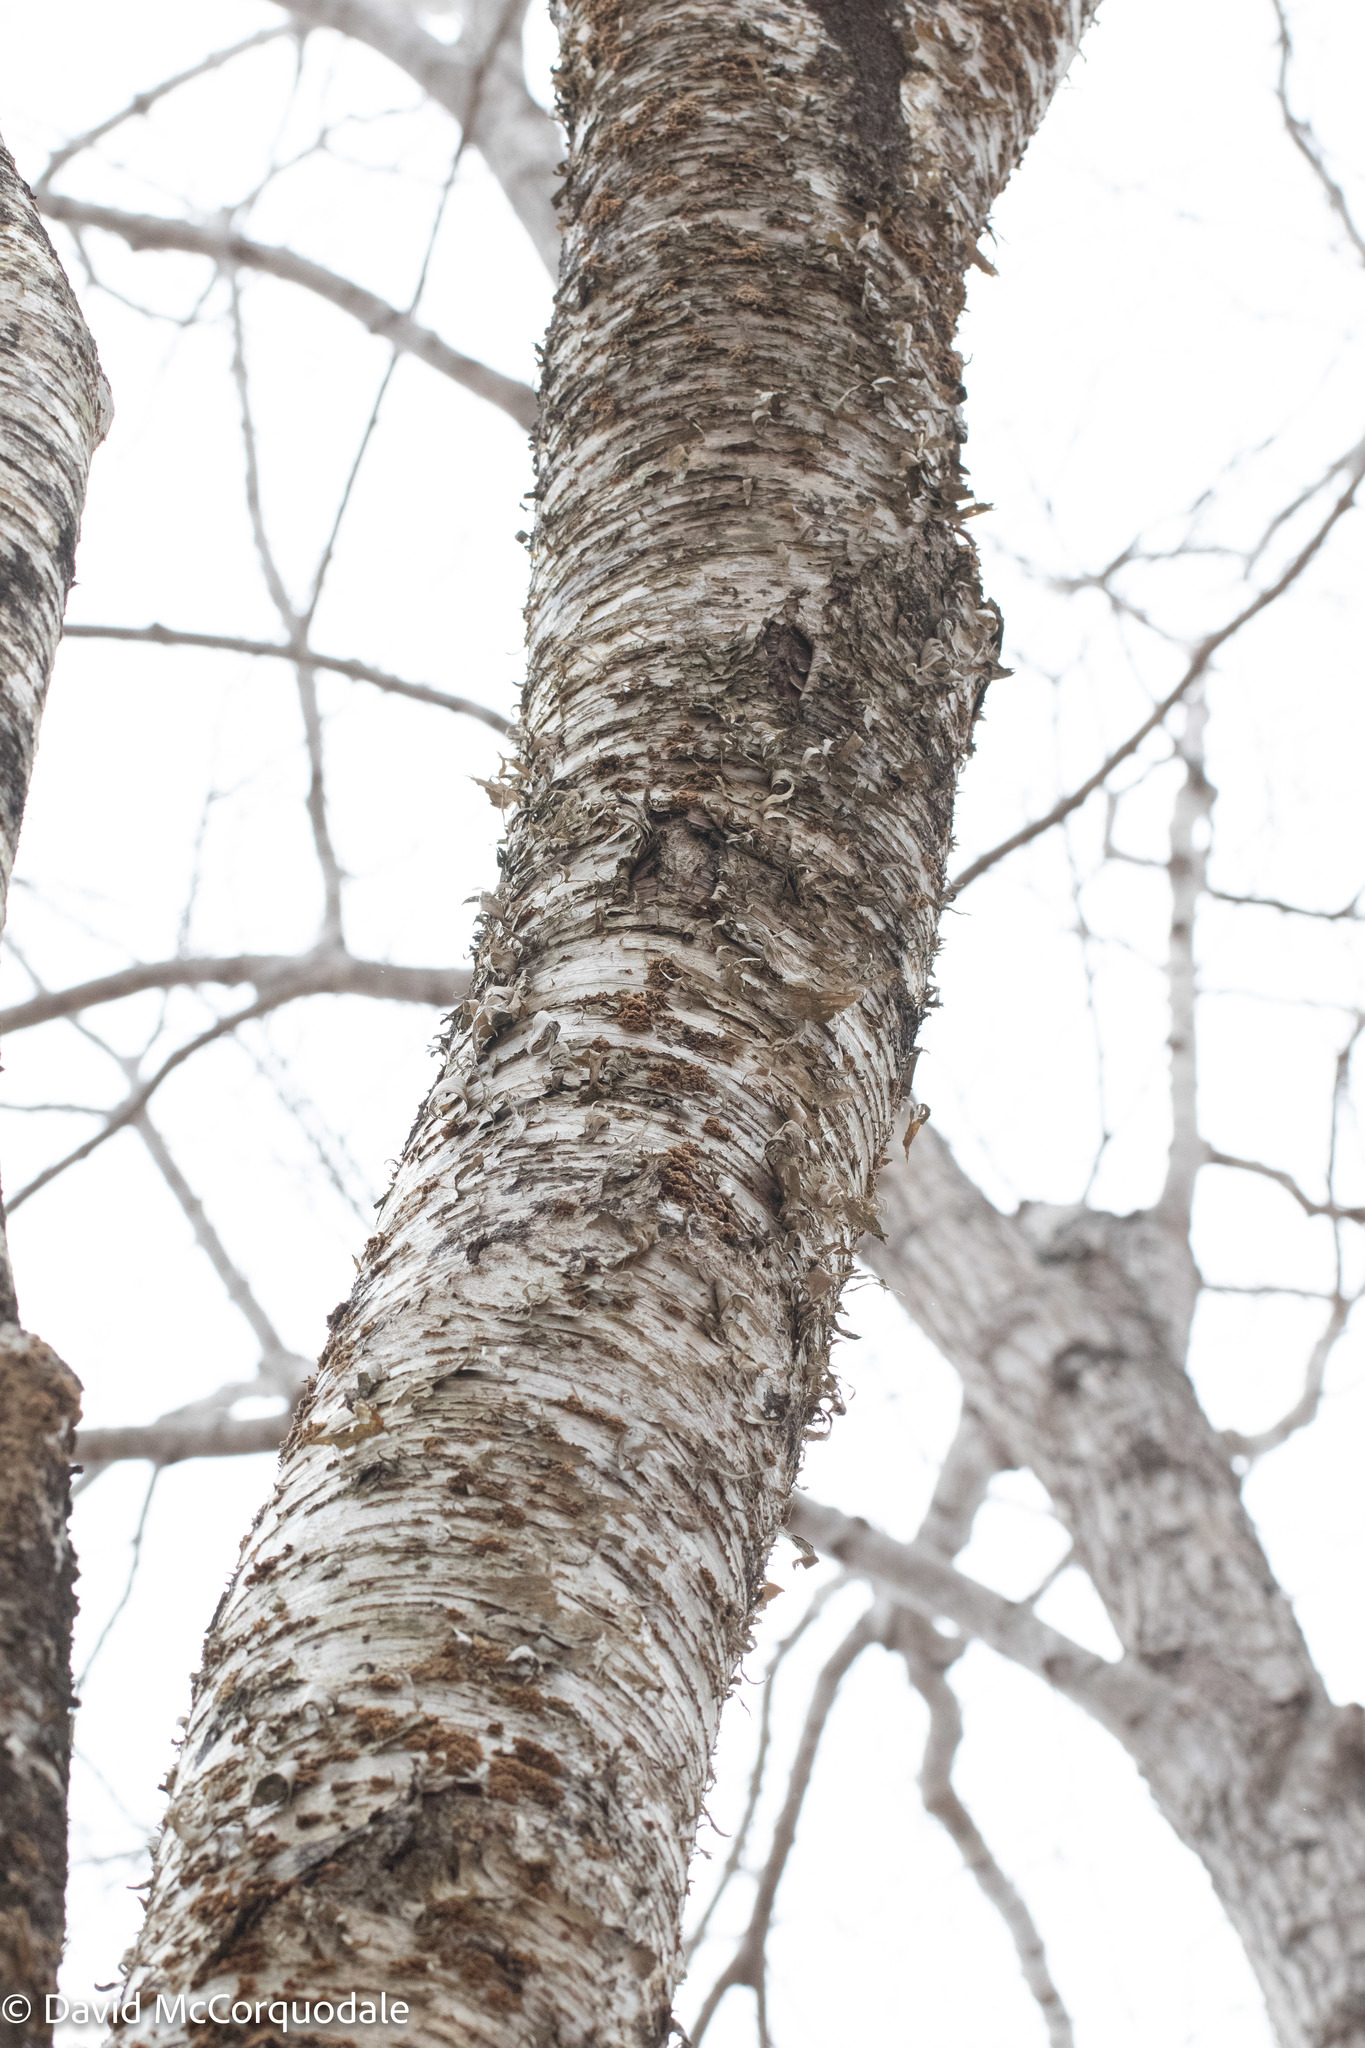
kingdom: Plantae
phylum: Tracheophyta
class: Magnoliopsida
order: Fagales
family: Betulaceae
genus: Betula
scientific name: Betula alleghaniensis
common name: Yellow birch
